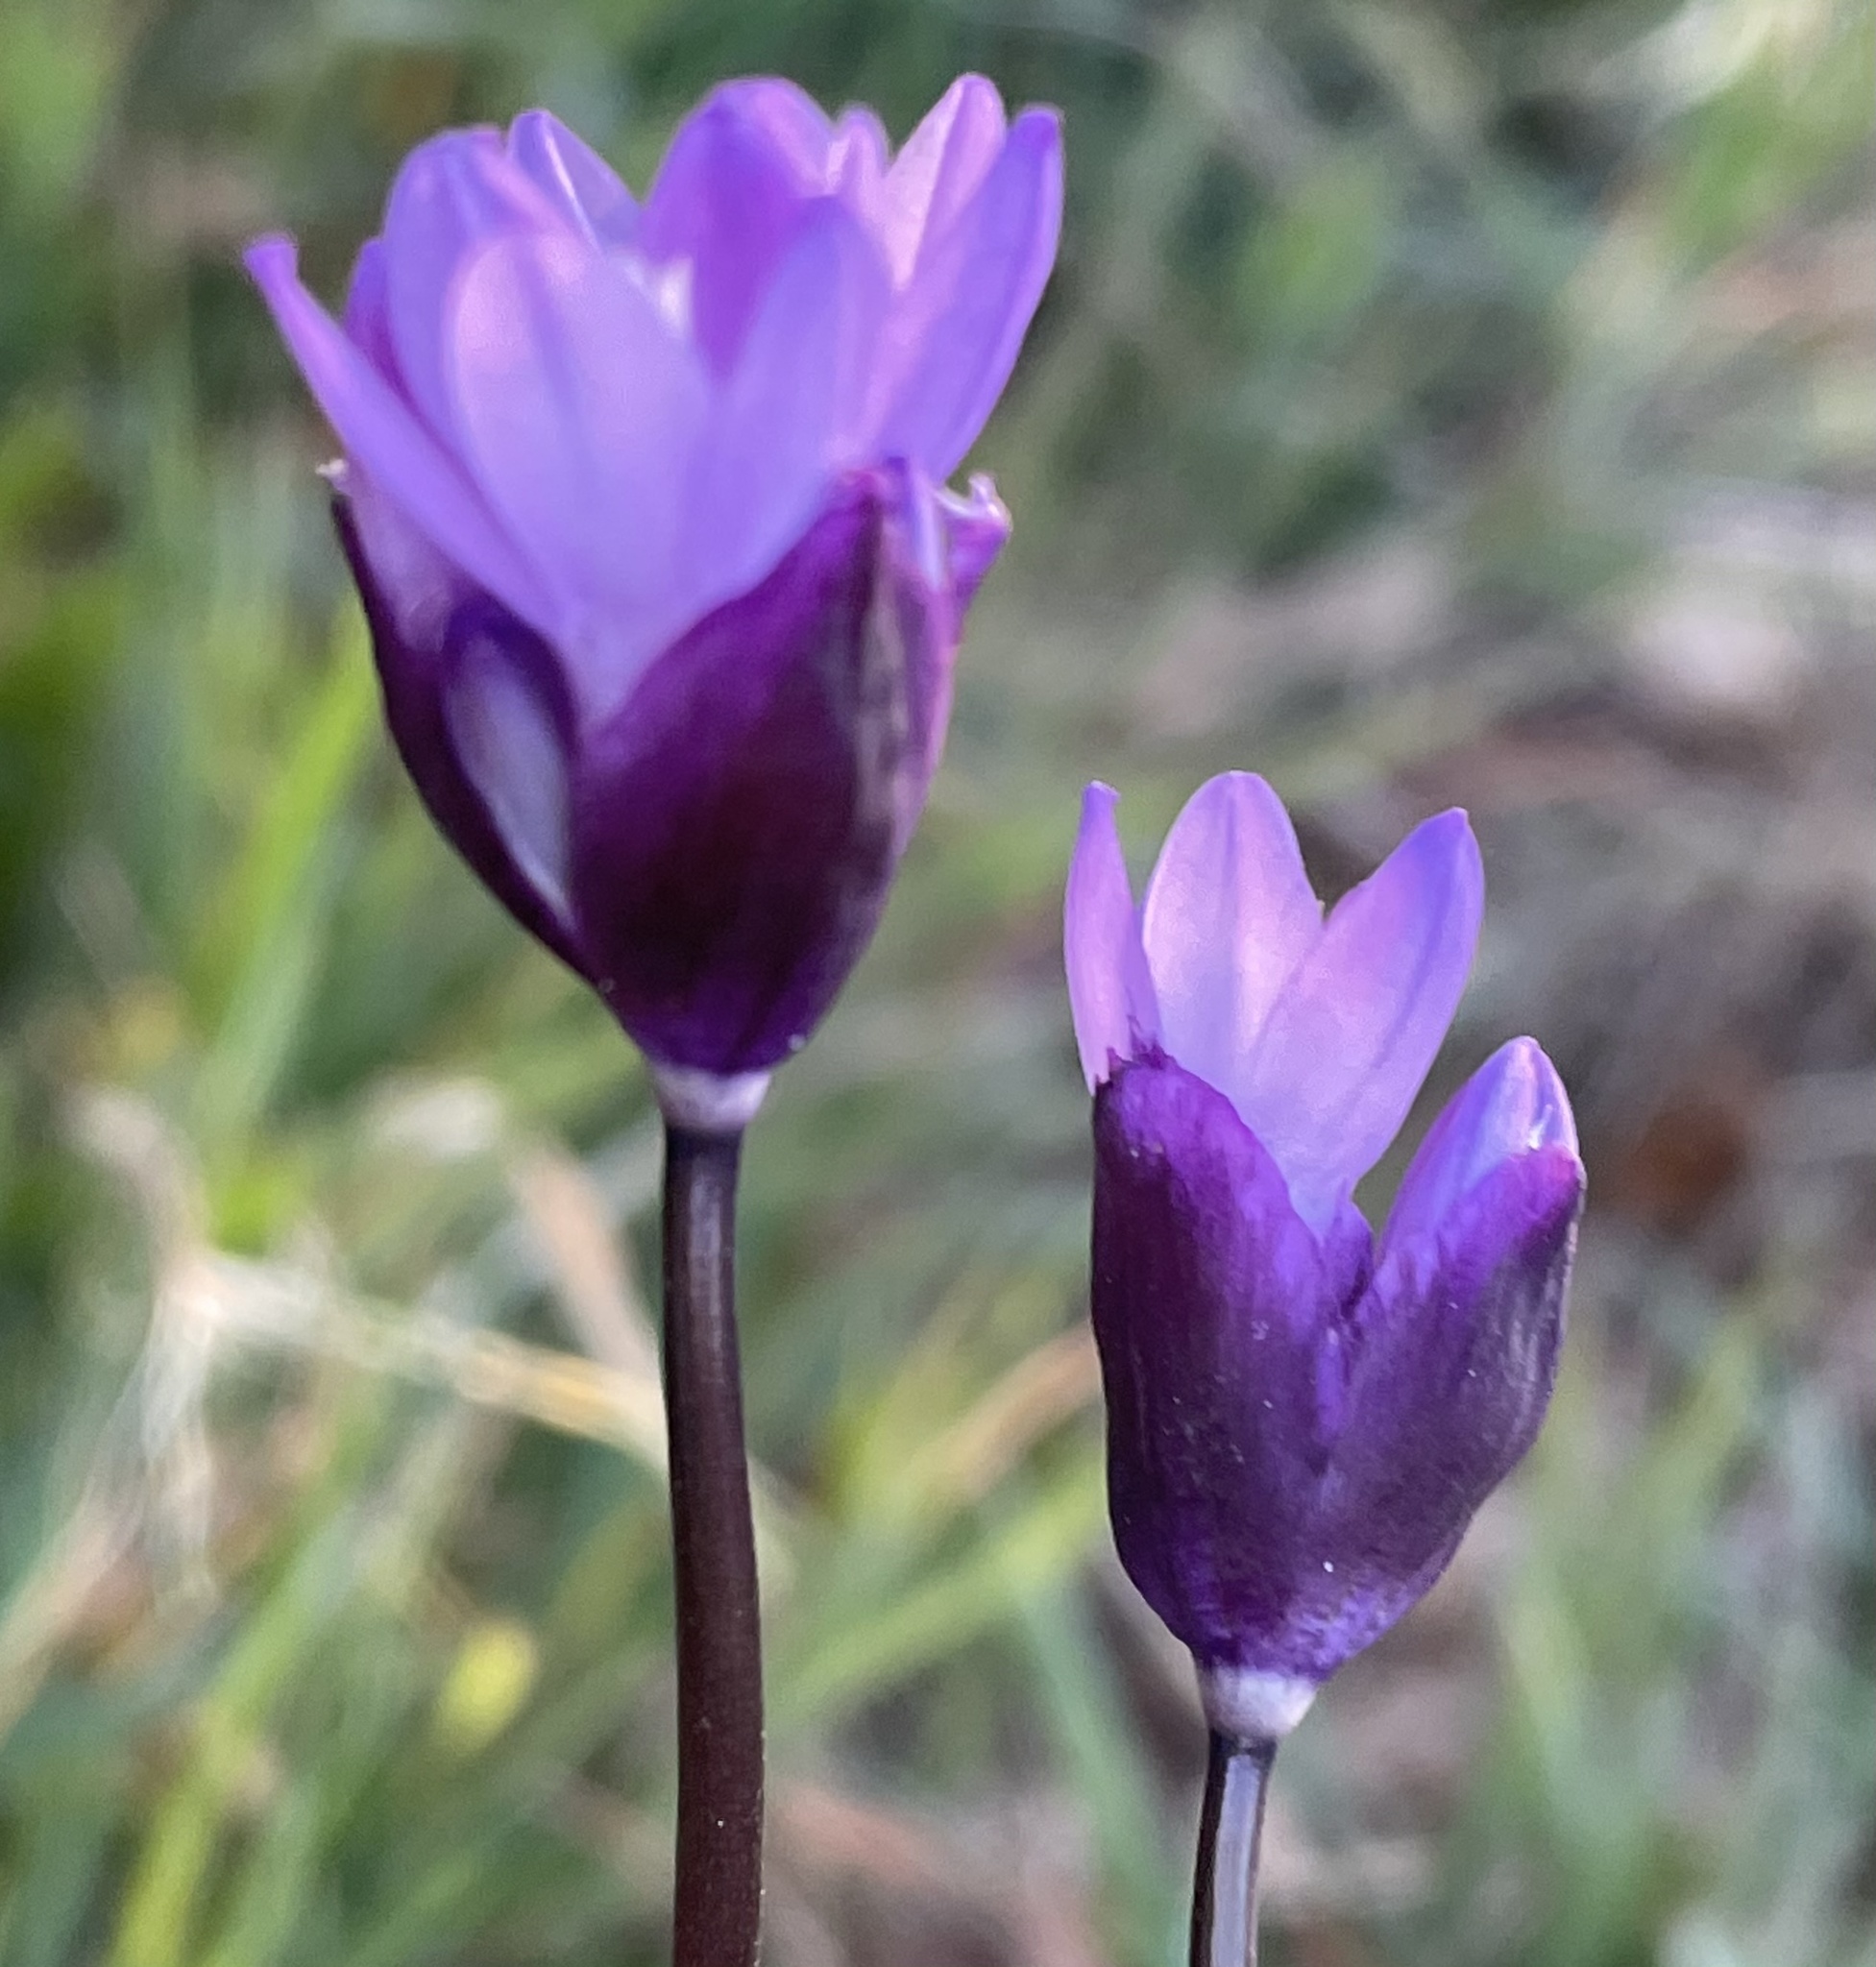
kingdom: Plantae
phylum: Tracheophyta
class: Liliopsida
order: Asparagales
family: Asparagaceae
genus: Dipterostemon
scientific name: Dipterostemon capitatus
